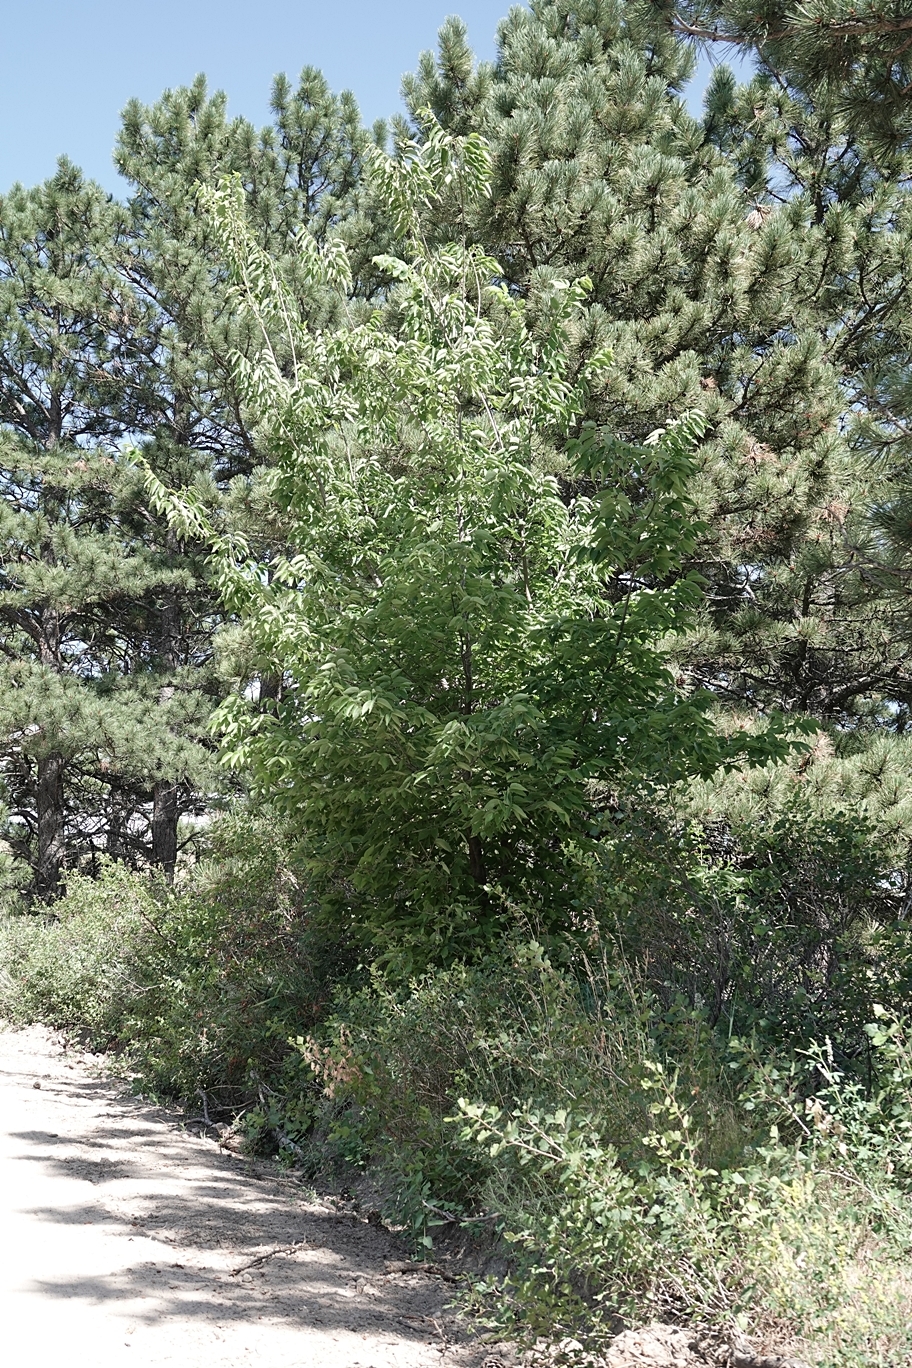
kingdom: Plantae
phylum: Tracheophyta
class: Magnoliopsida
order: Rosales
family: Cannabaceae
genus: Celtis
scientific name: Celtis occidentalis
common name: Common hackberry
